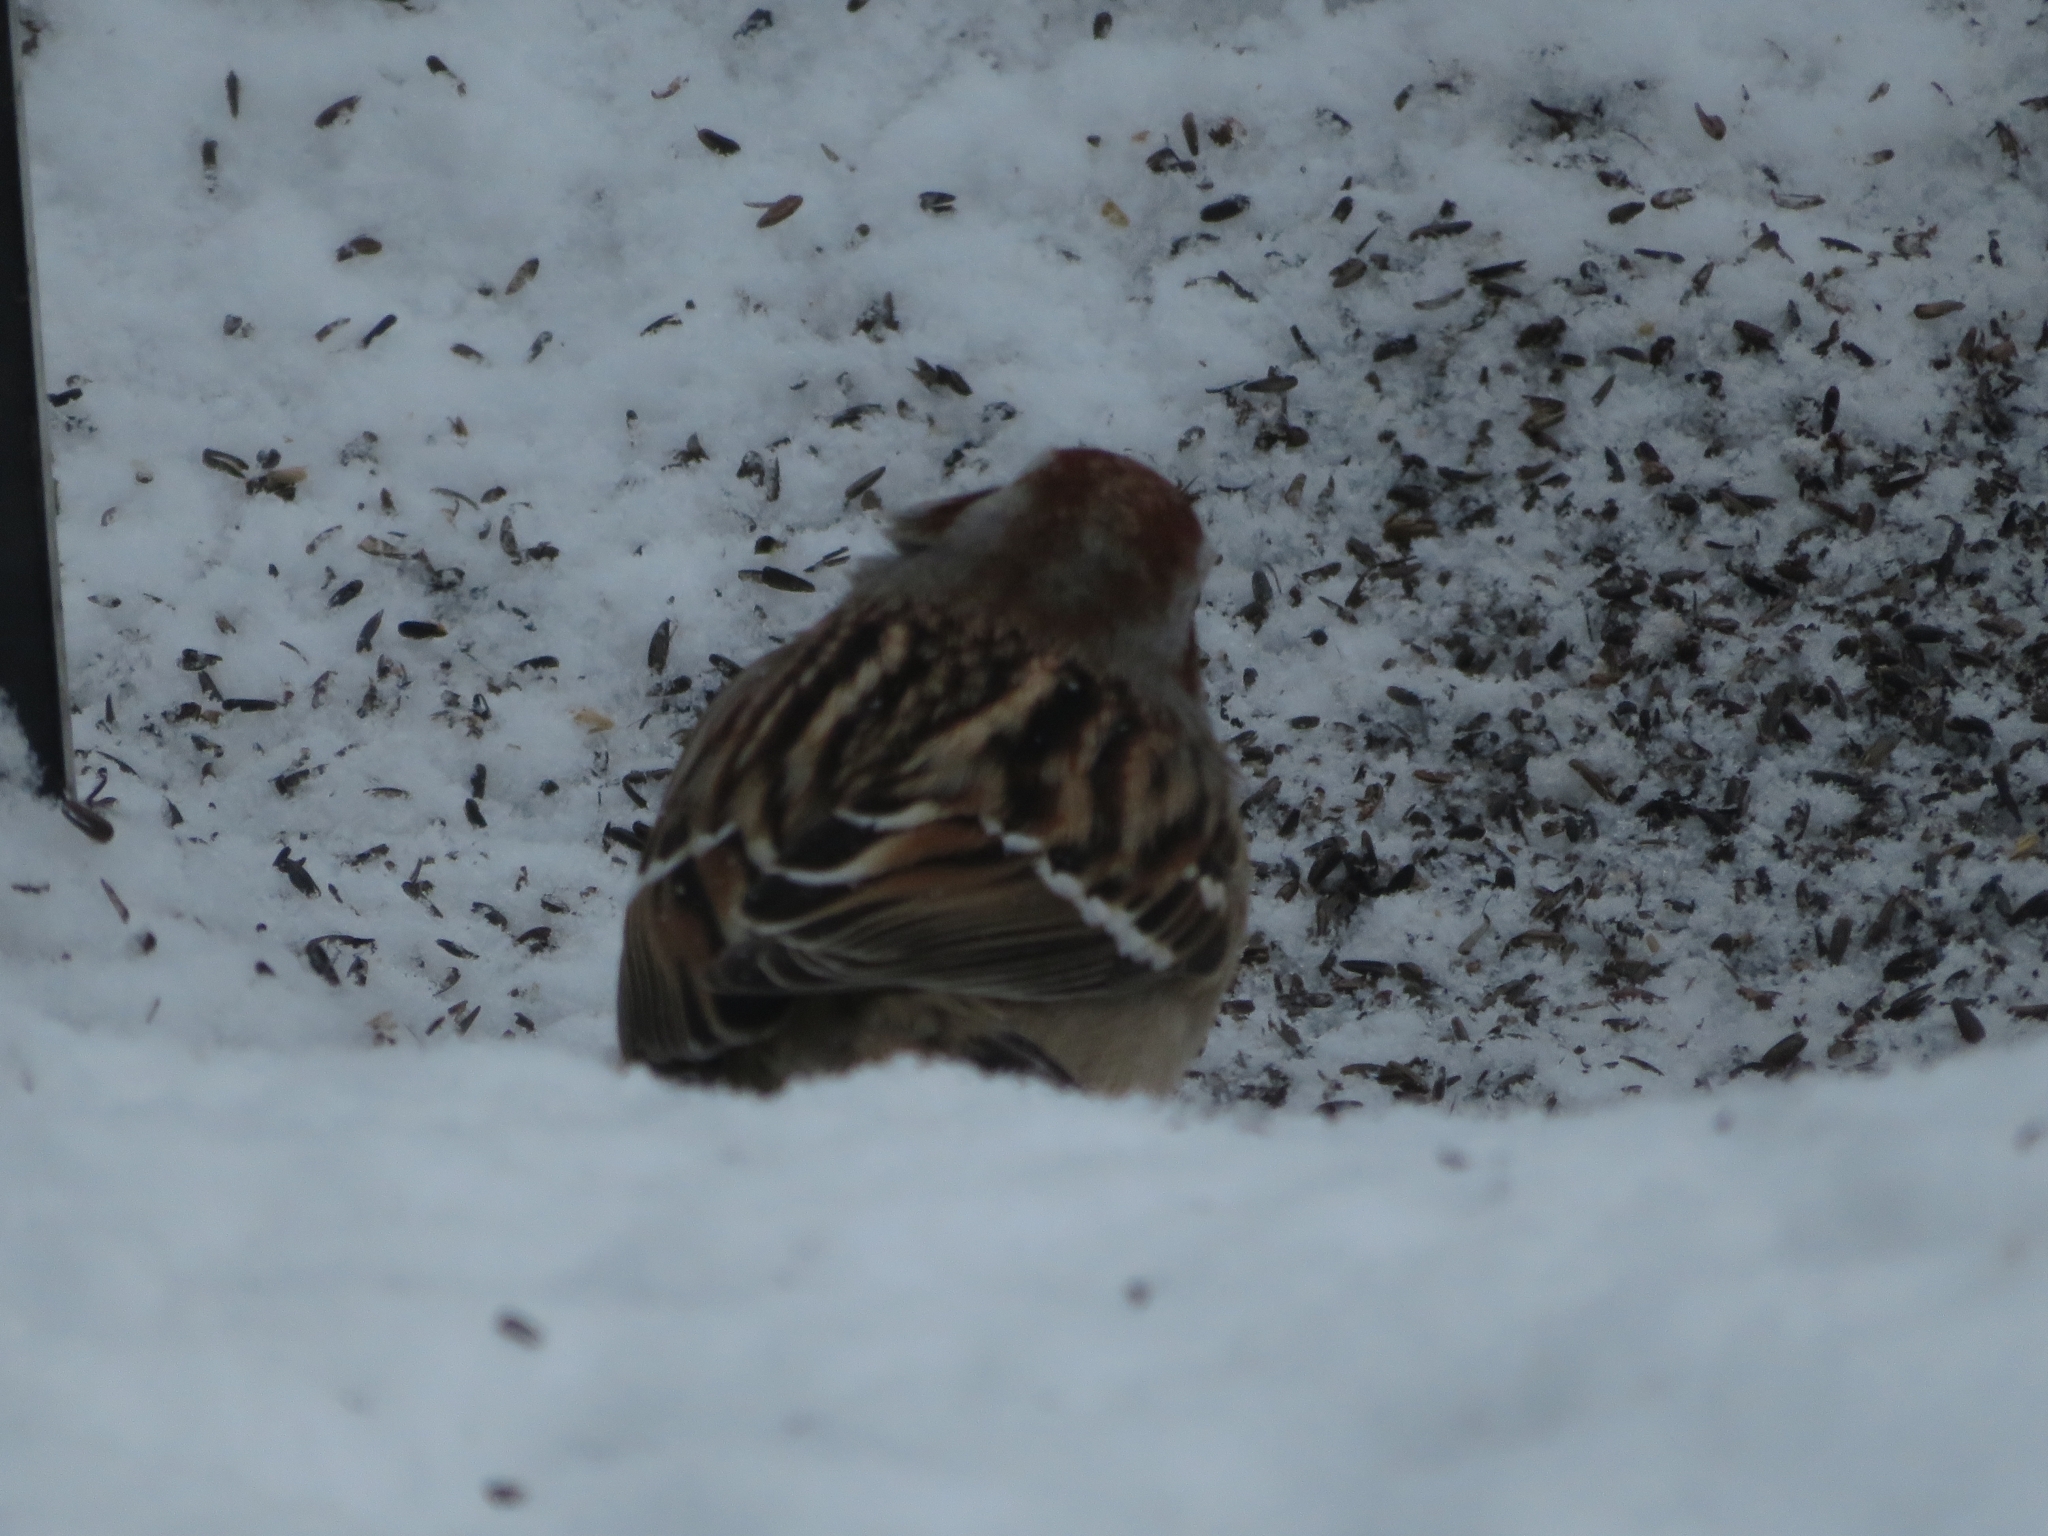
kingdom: Animalia
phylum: Chordata
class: Aves
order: Passeriformes
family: Passerellidae
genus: Spizelloides
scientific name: Spizelloides arborea
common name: American tree sparrow
